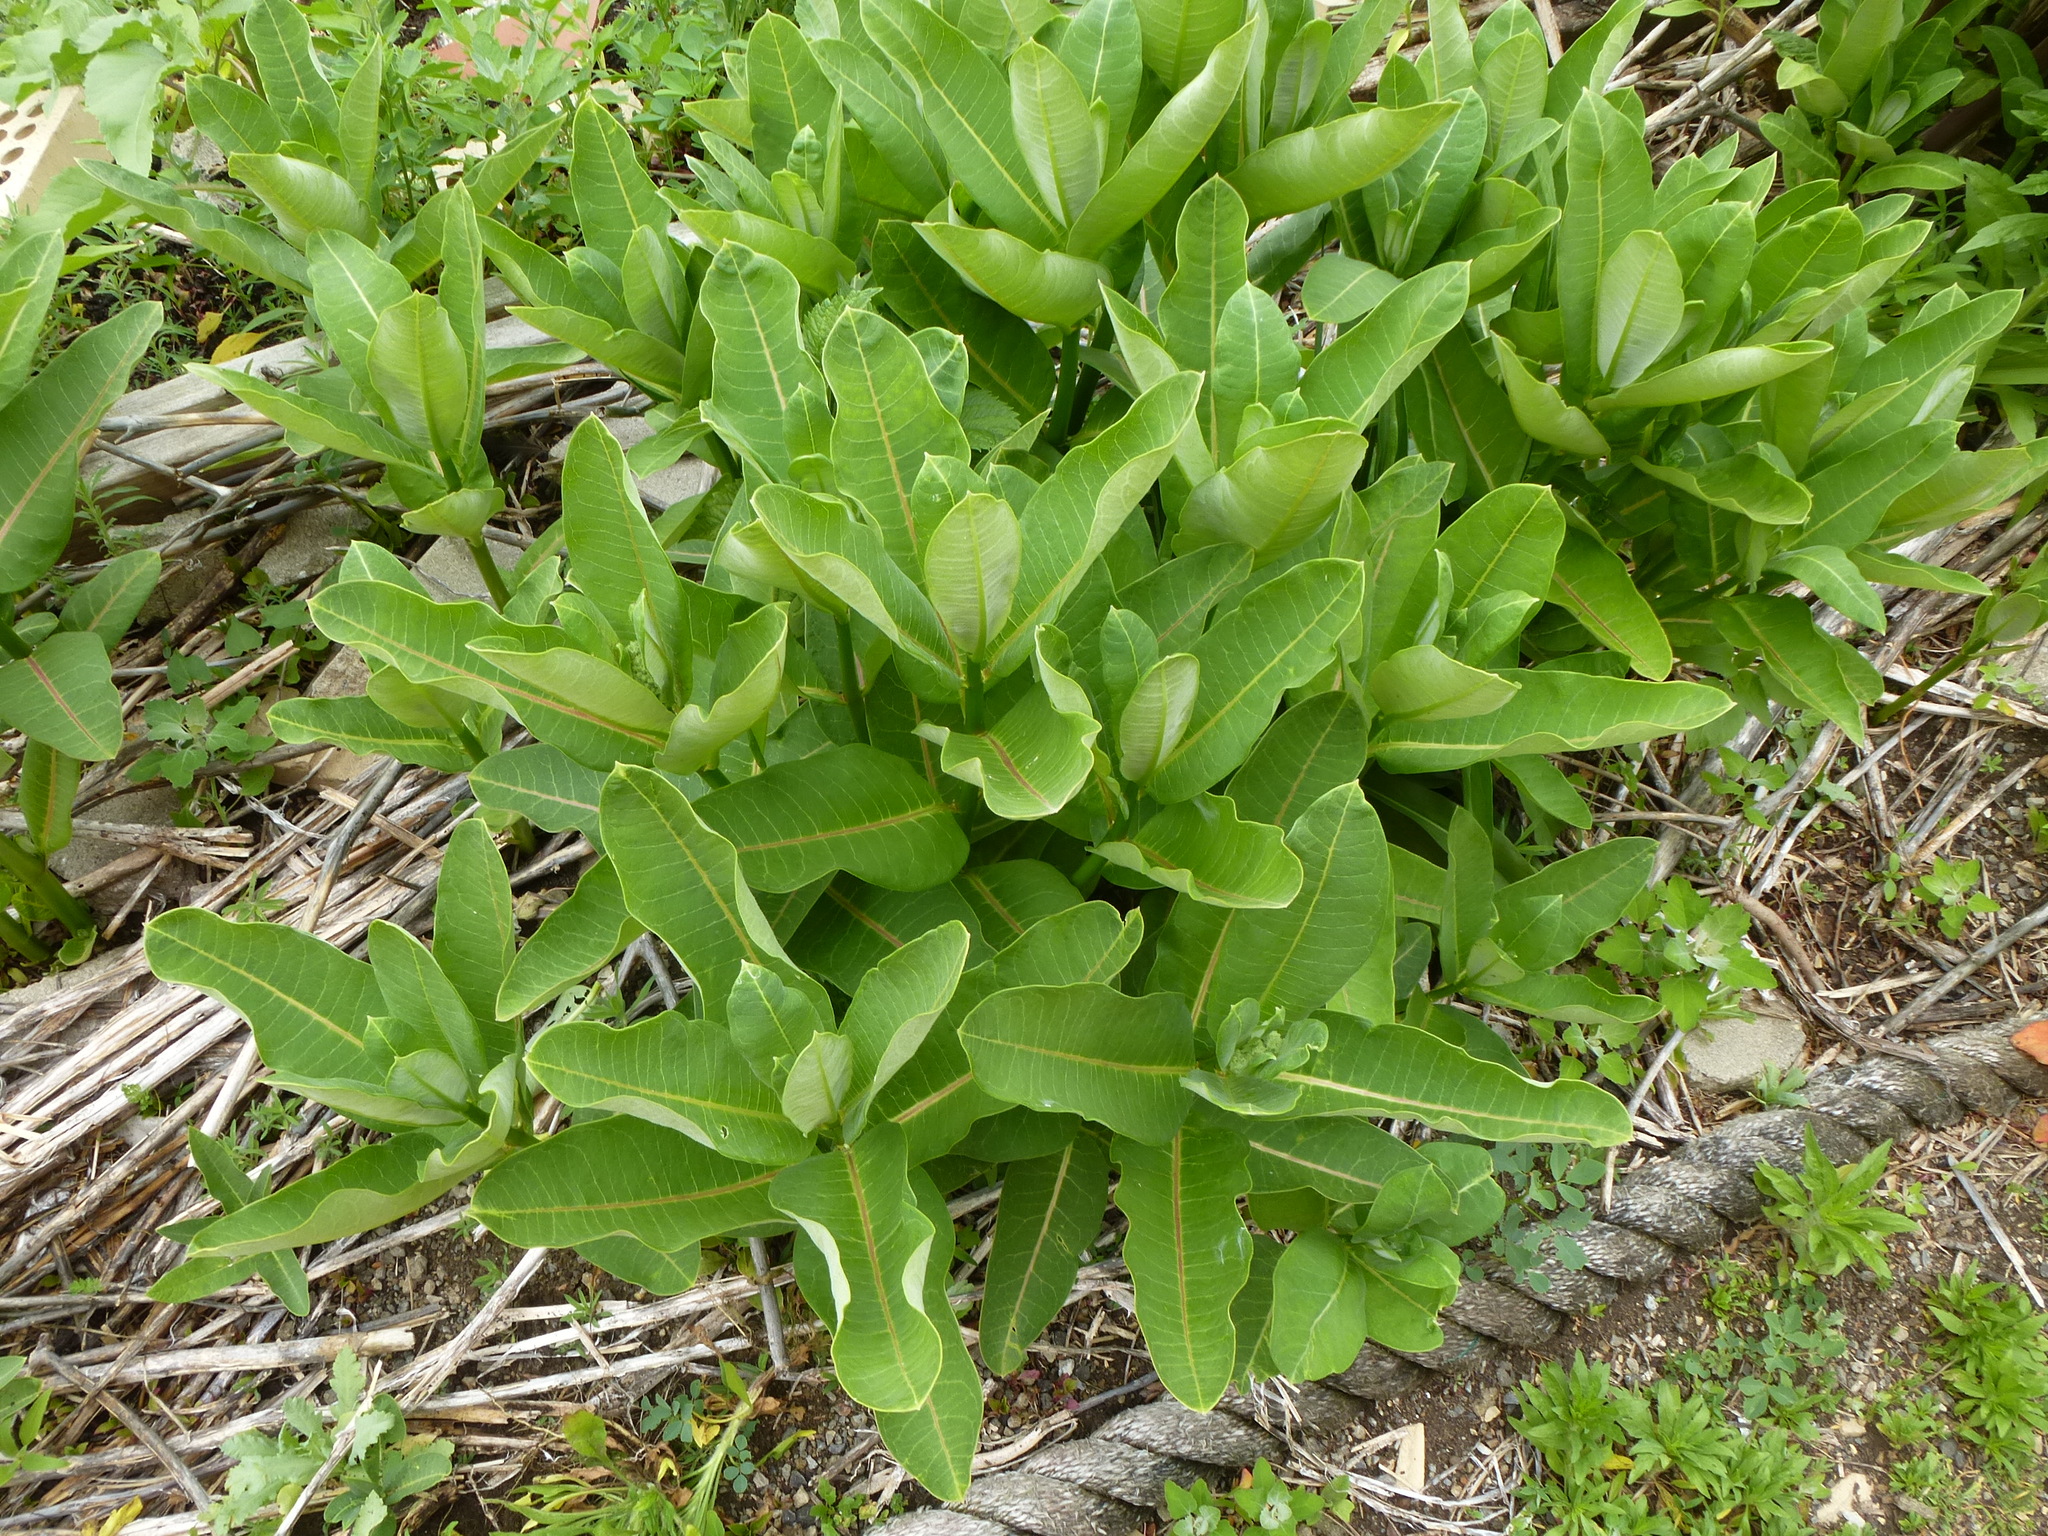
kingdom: Plantae
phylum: Tracheophyta
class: Magnoliopsida
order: Gentianales
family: Apocynaceae
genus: Asclepias
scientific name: Asclepias syriaca
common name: Common milkweed
